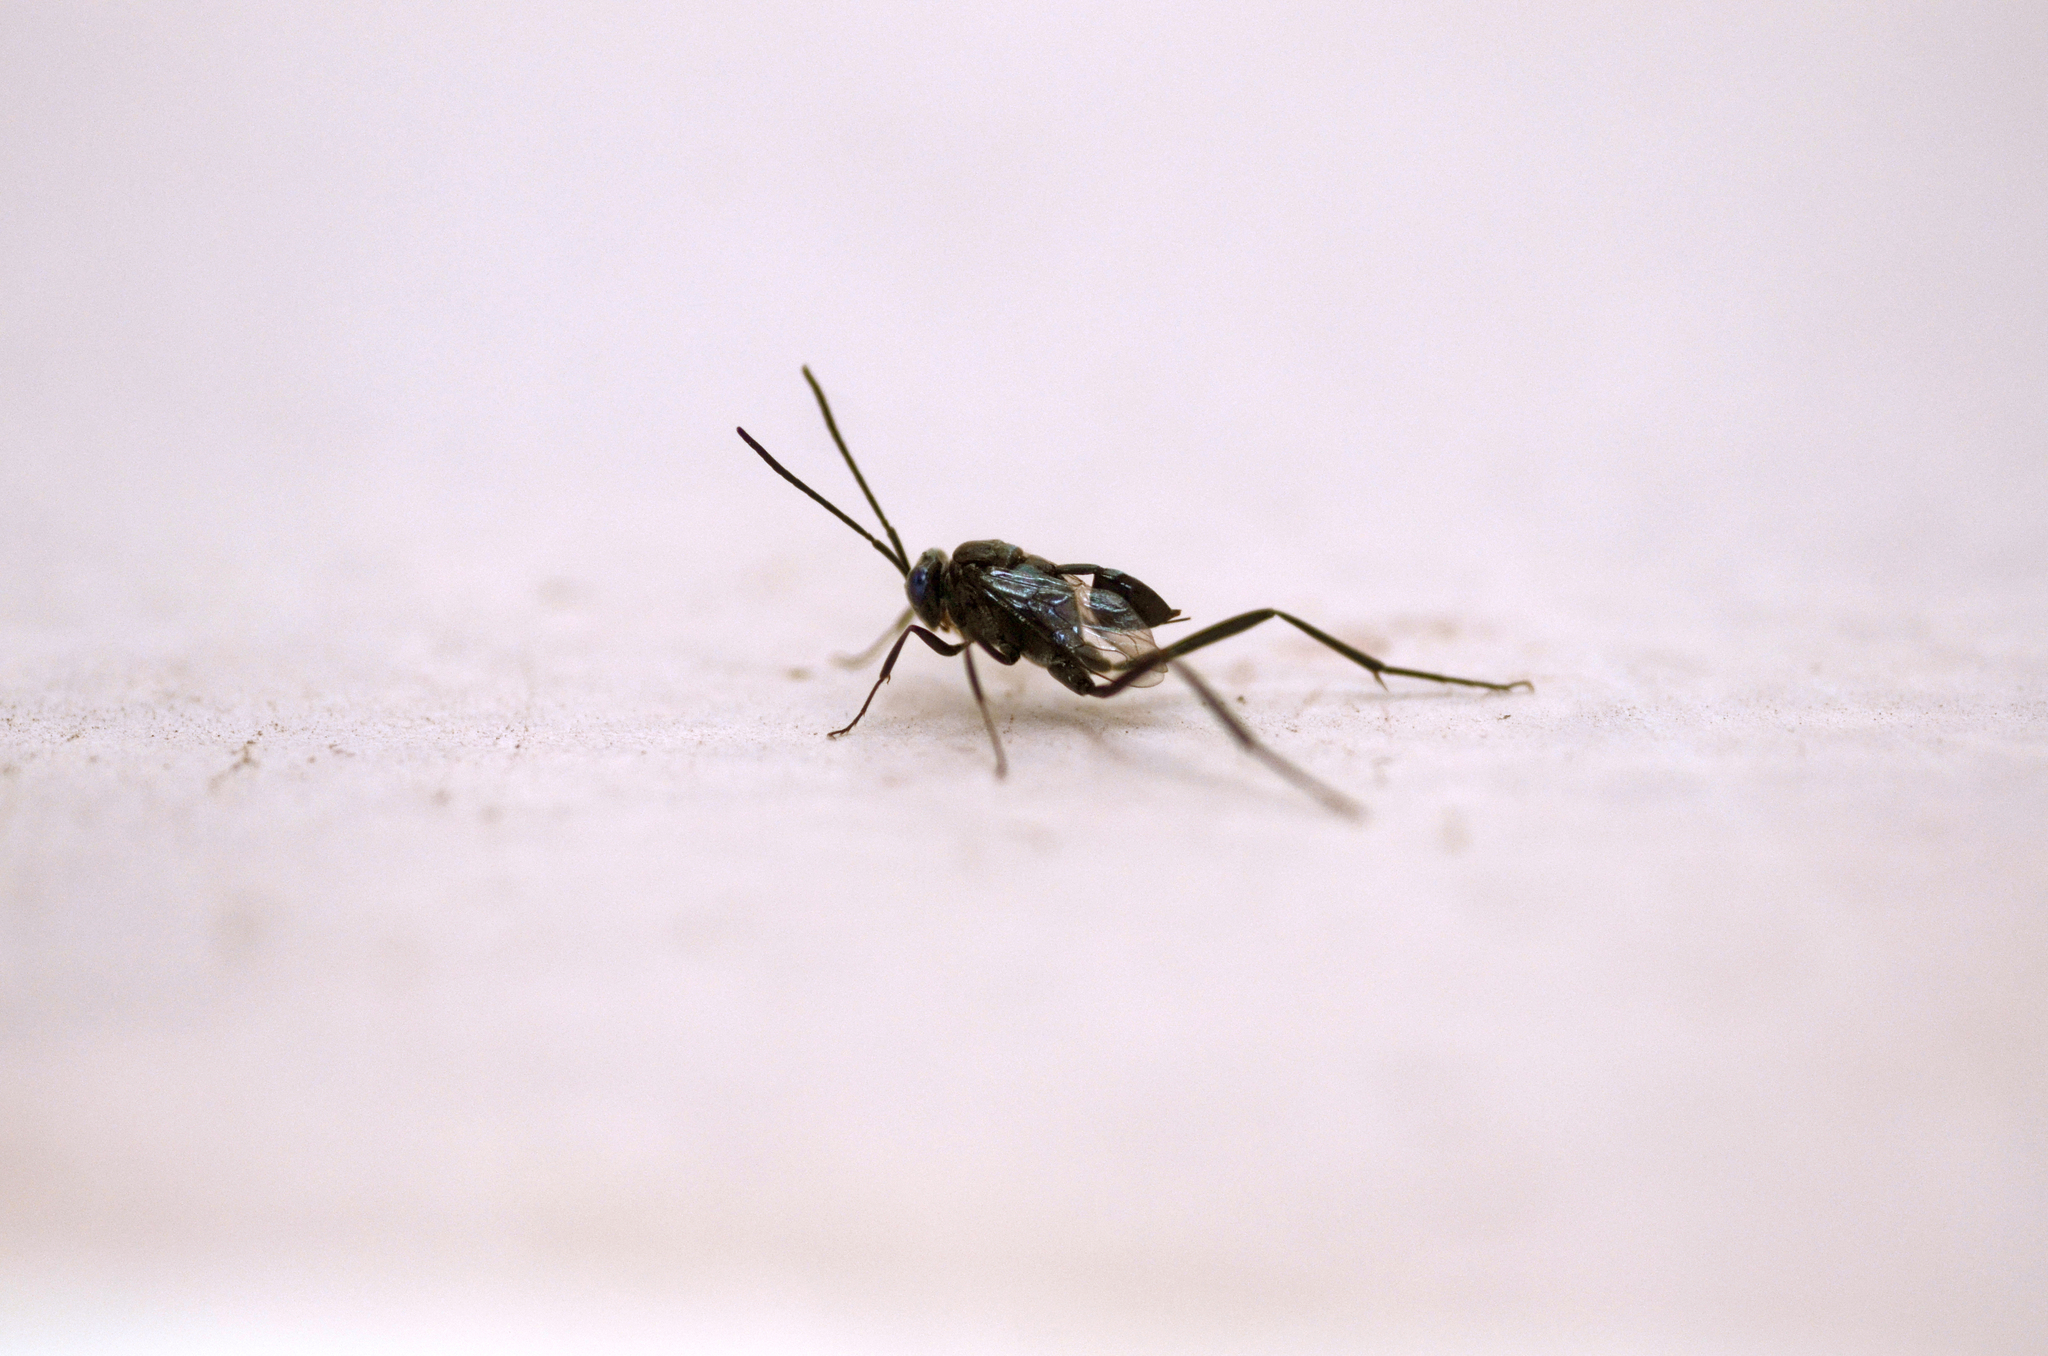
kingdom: Animalia
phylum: Arthropoda
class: Insecta
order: Hymenoptera
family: Evaniidae
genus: Evania
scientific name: Evania appendigaster
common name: Ensign wasp
